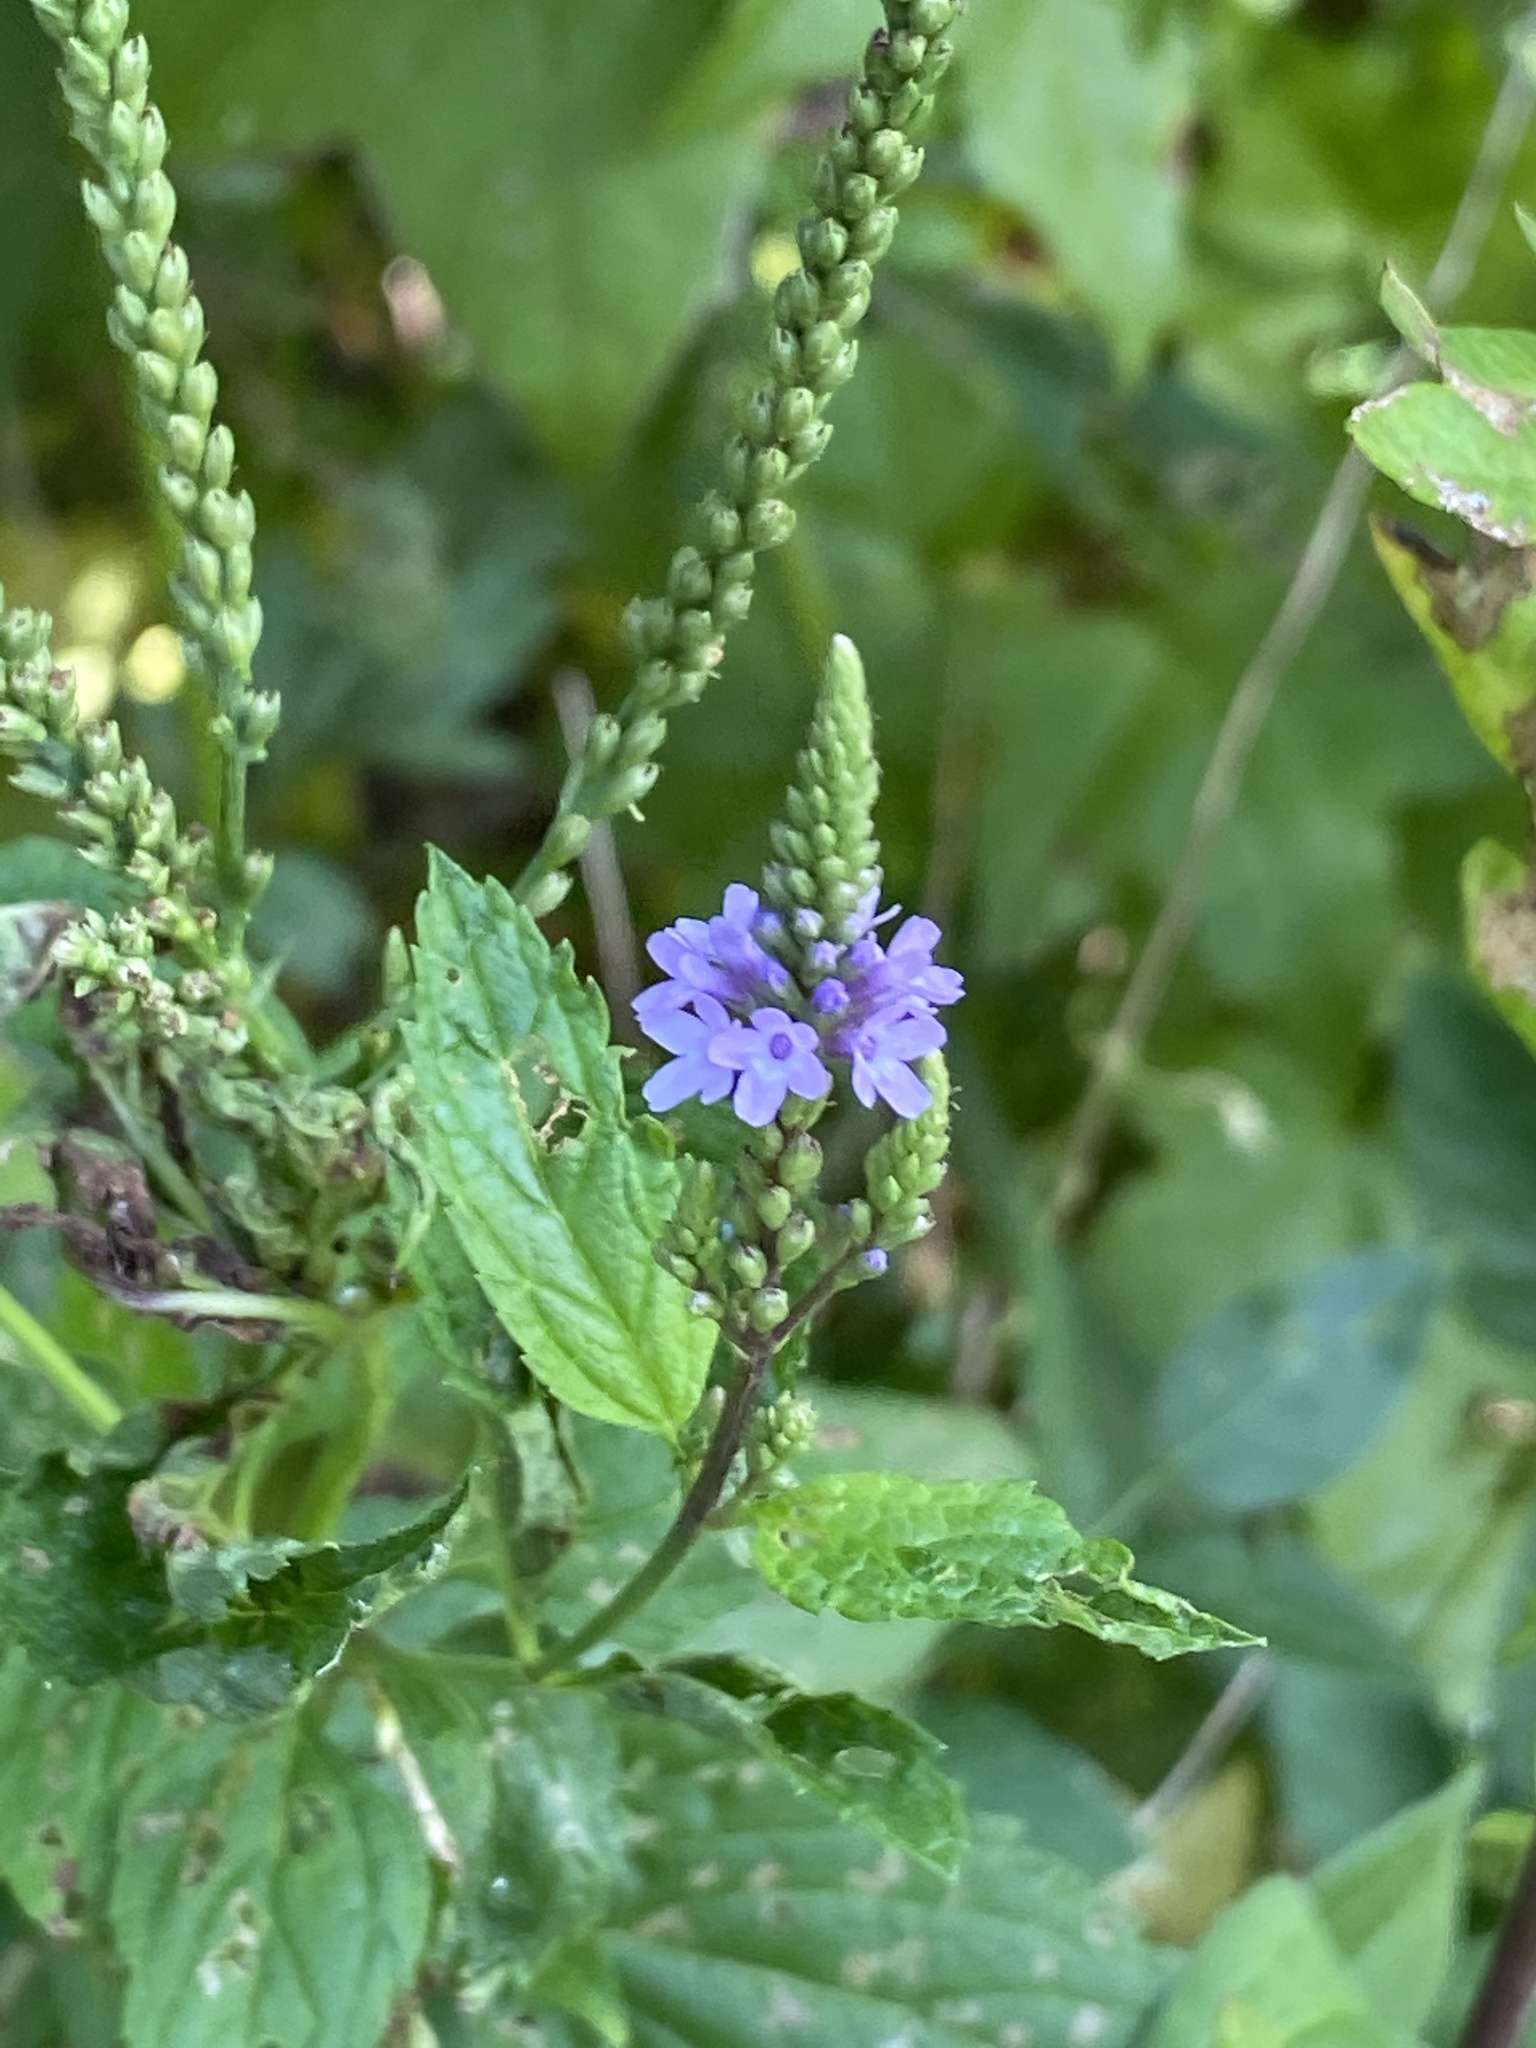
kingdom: Plantae
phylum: Tracheophyta
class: Magnoliopsida
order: Lamiales
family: Verbenaceae
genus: Verbena
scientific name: Verbena hastata
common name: American blue vervain
